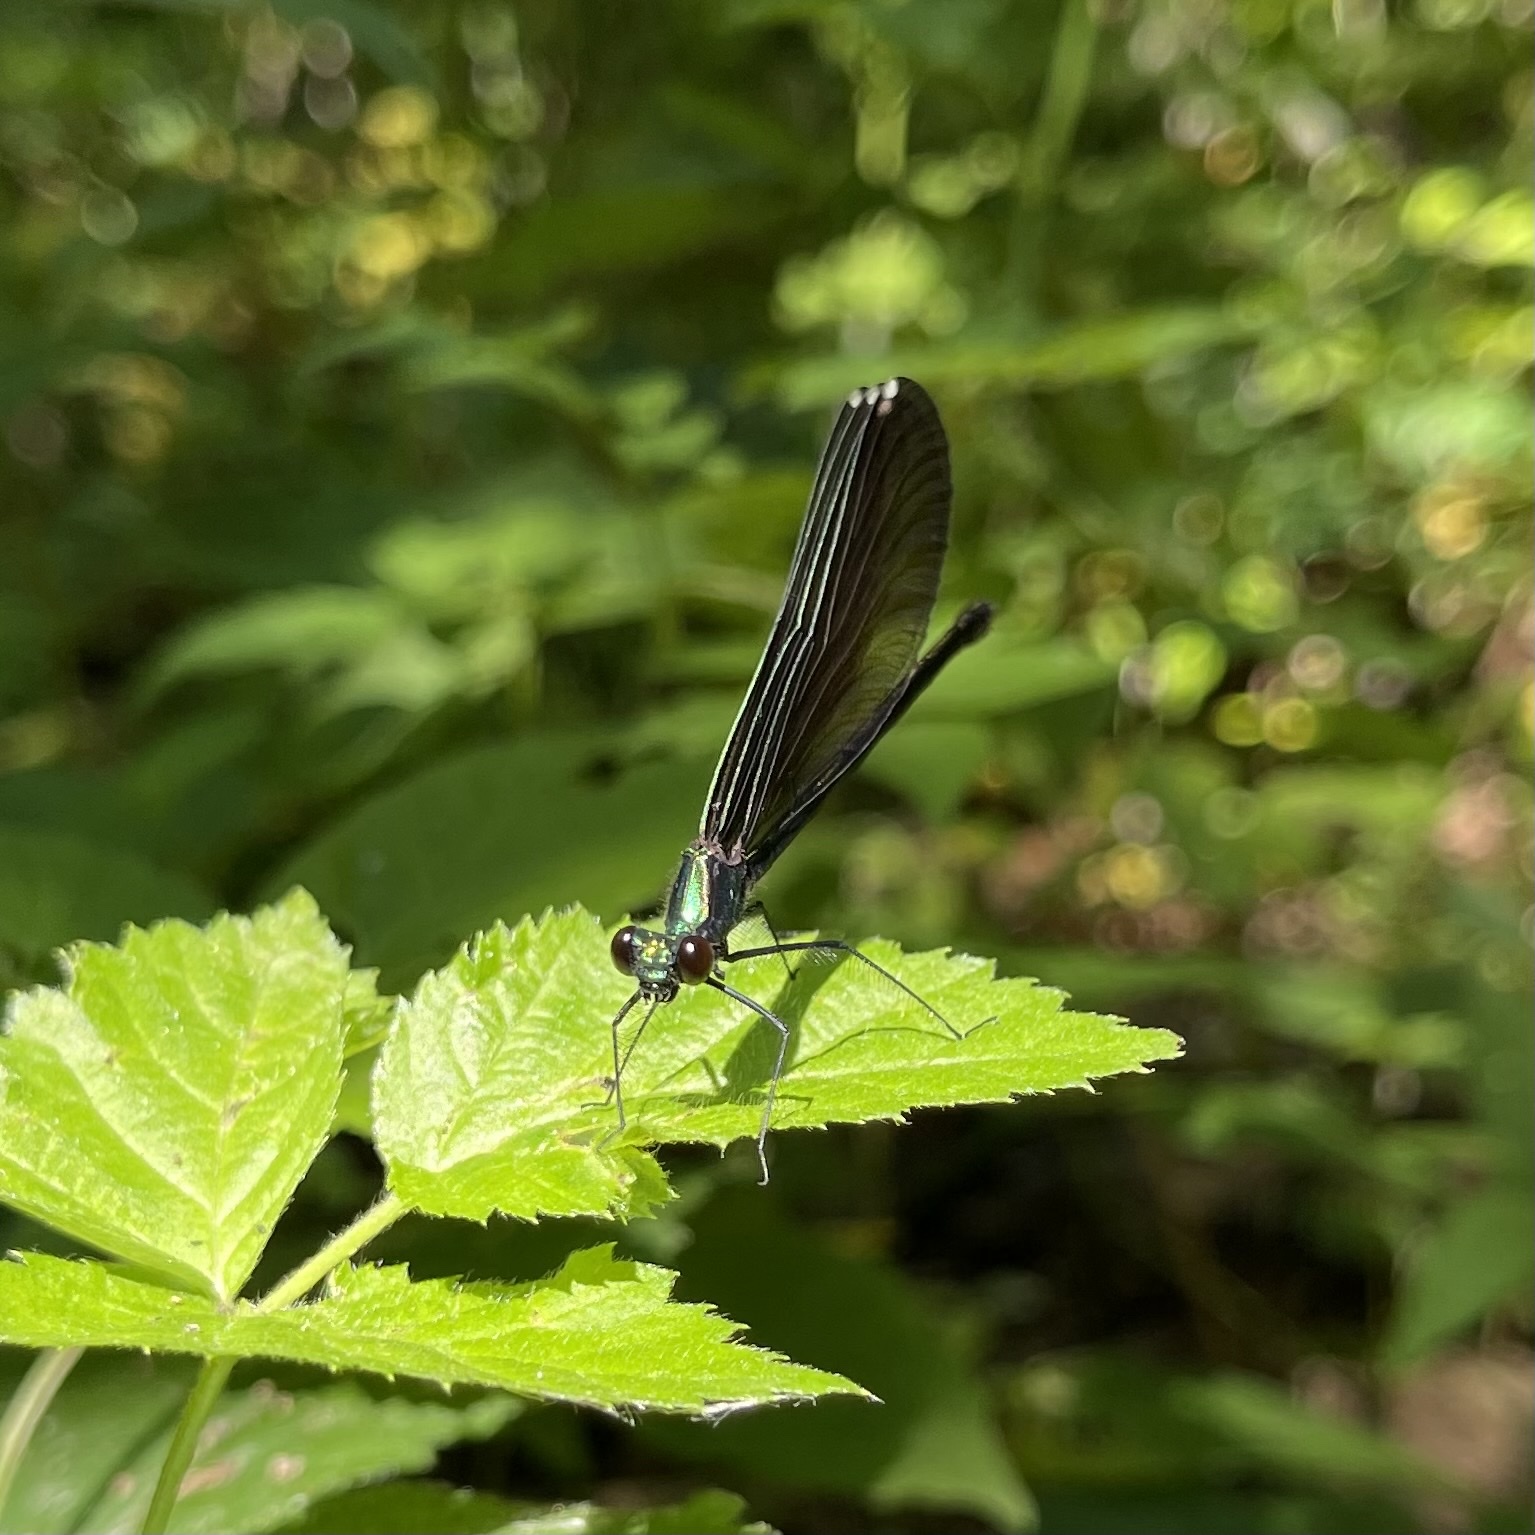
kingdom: Animalia
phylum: Arthropoda
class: Insecta
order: Odonata
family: Calopterygidae
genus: Calopteryx
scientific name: Calopteryx maculata
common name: Ebony jewelwing
